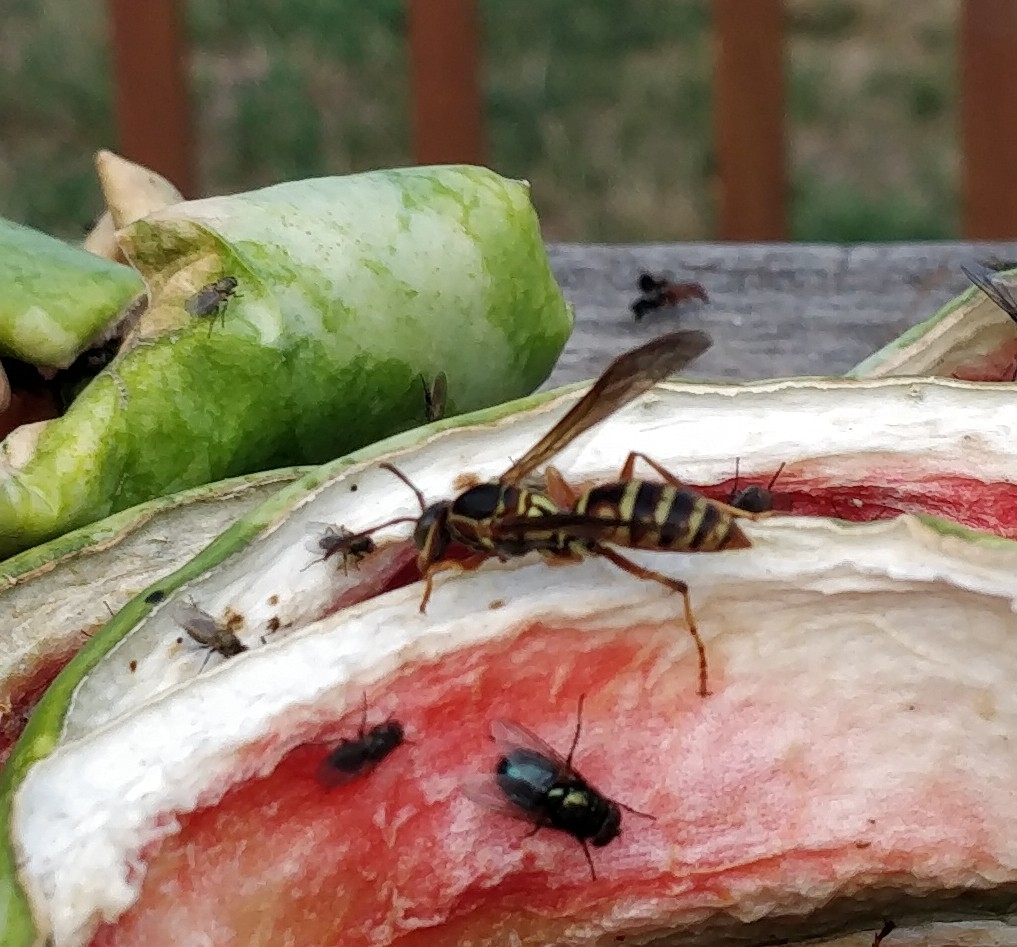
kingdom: Animalia
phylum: Arthropoda
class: Insecta
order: Hymenoptera
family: Eumenidae
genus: Polistes
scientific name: Polistes fuscatus
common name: Dark paper wasp
